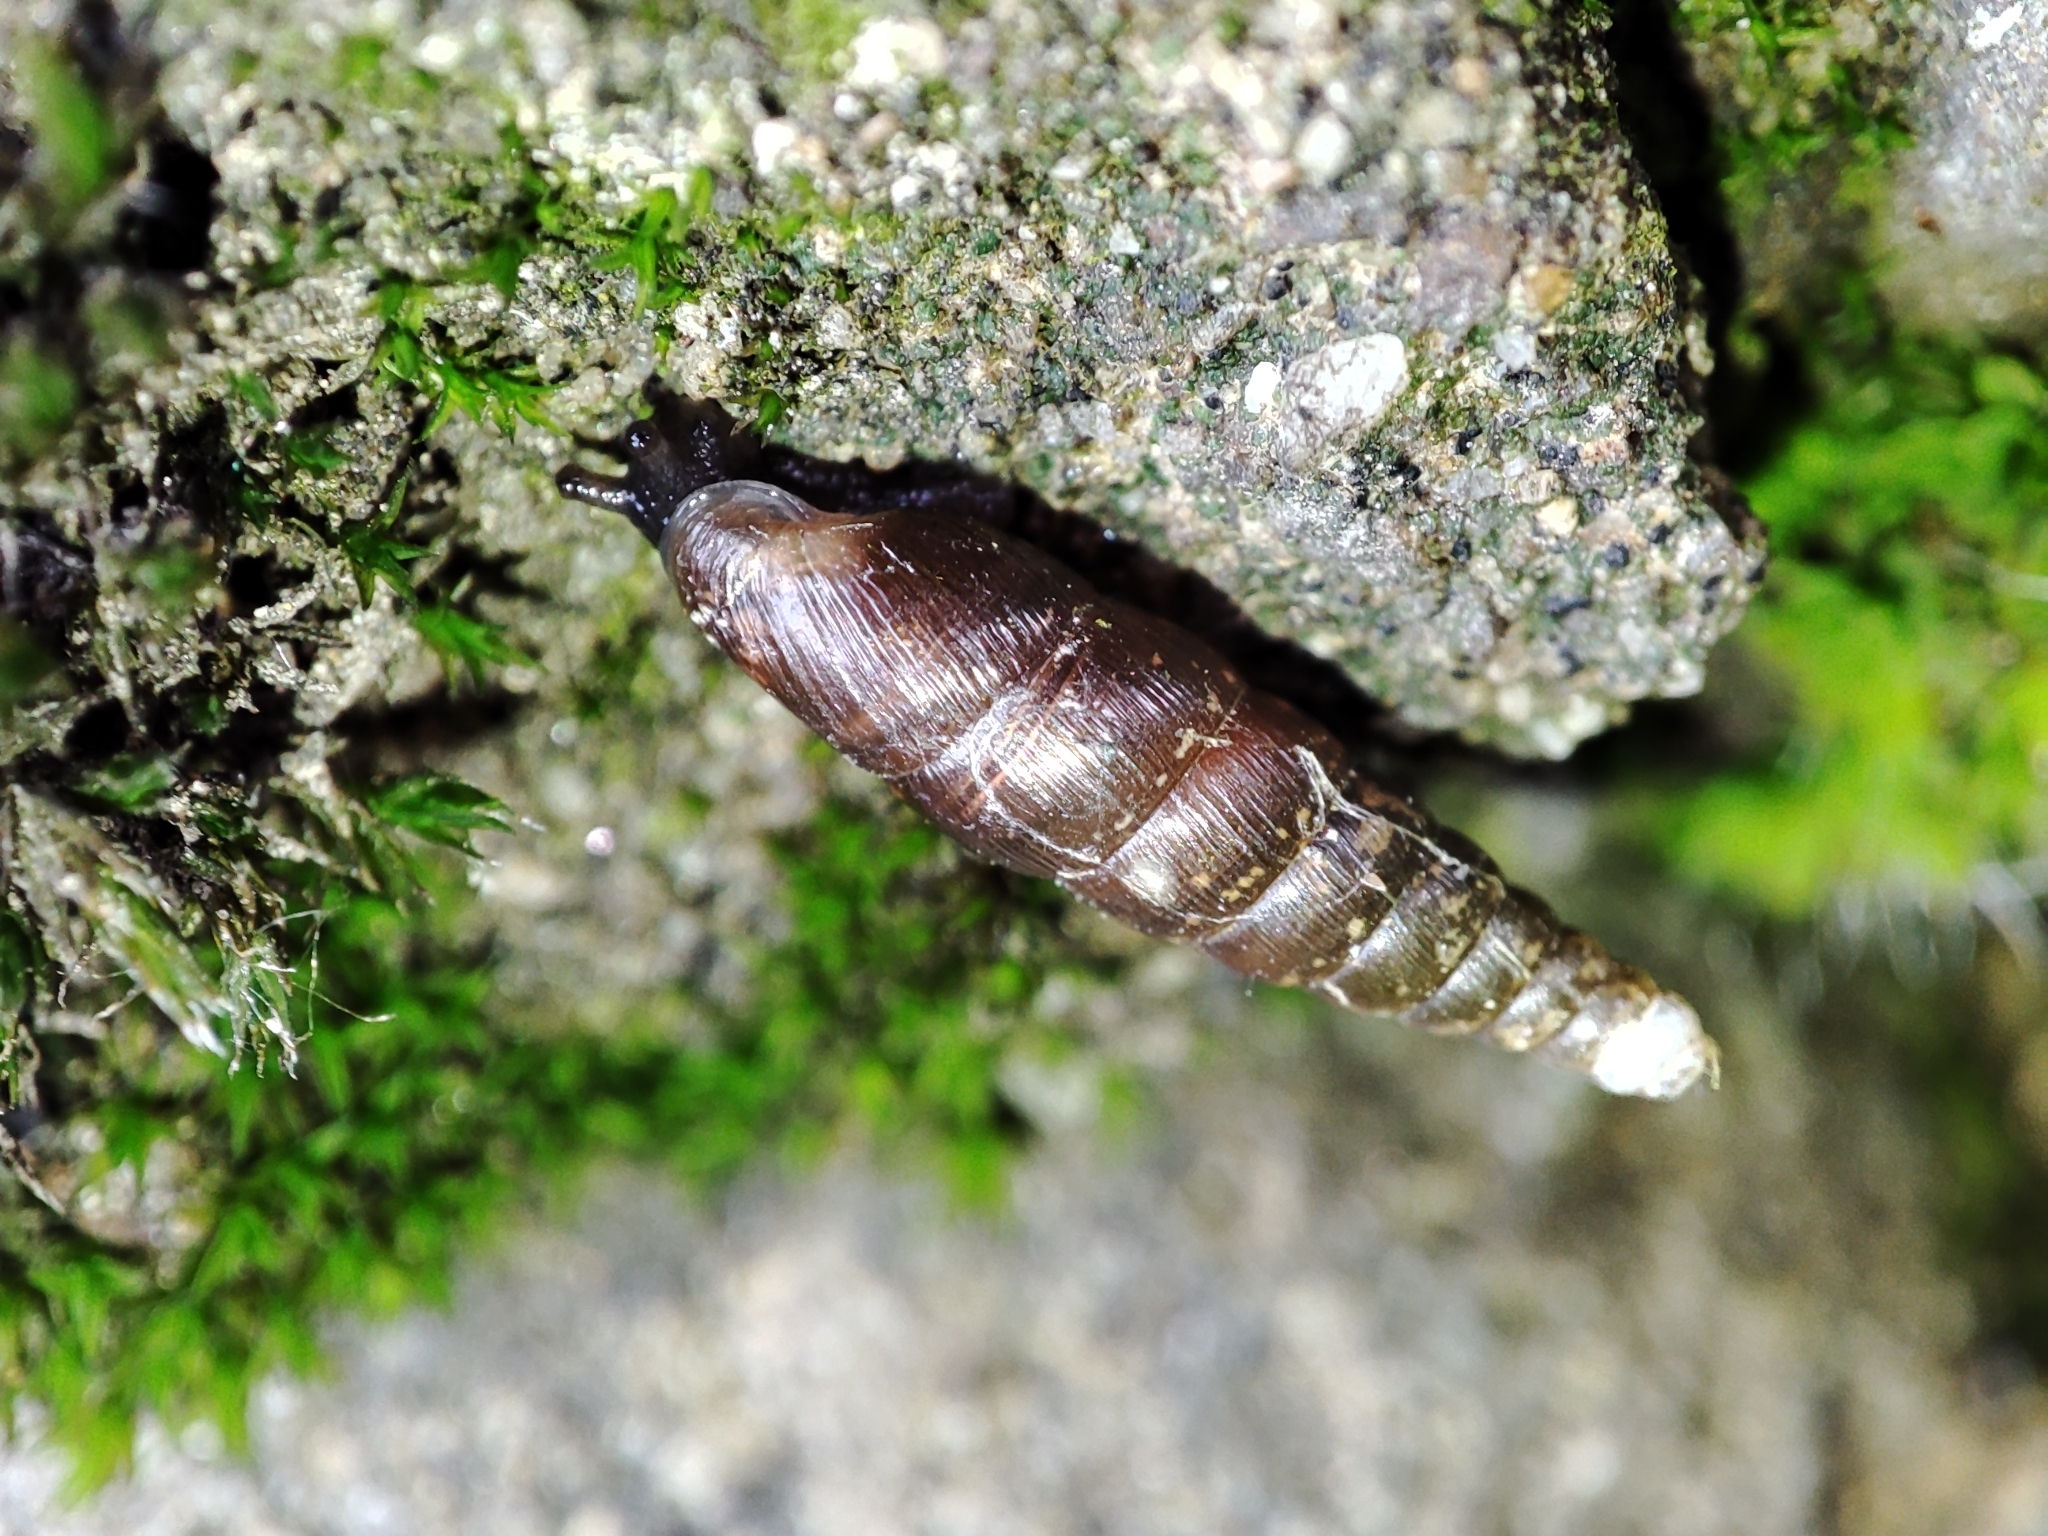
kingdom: Animalia
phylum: Mollusca
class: Gastropoda
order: Stylommatophora
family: Clausiliidae
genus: Cochlodina
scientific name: Cochlodina orthostoma
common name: Straightmouth door snail
